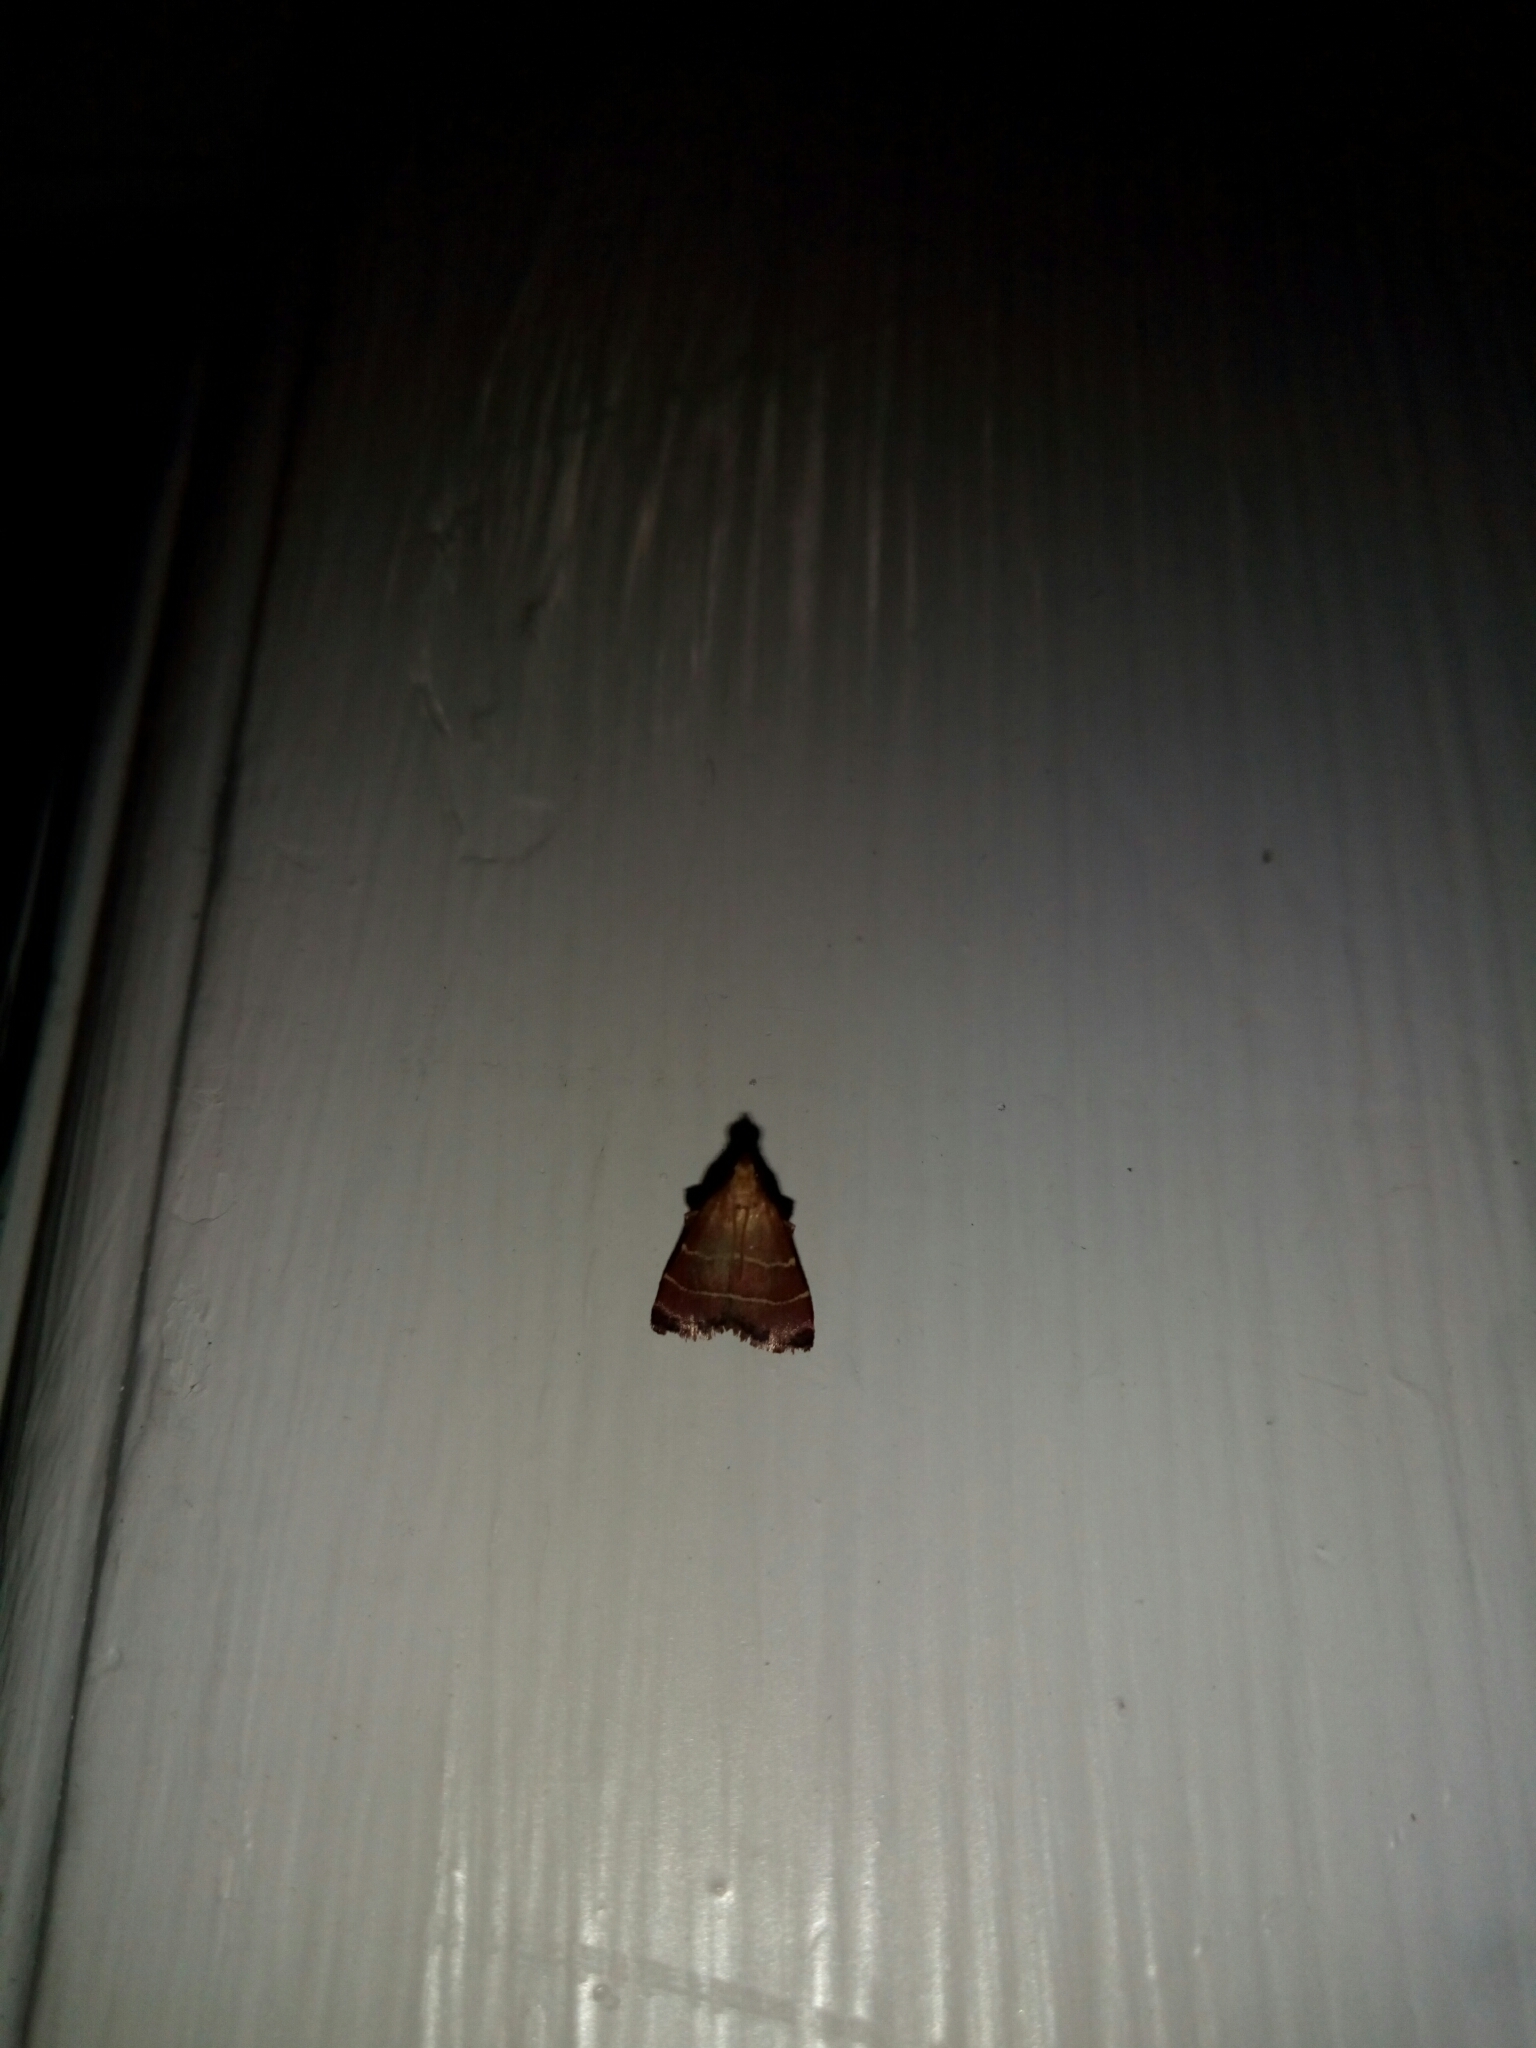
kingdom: Animalia
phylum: Arthropoda
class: Insecta
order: Lepidoptera
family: Pyralidae
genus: Arta
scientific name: Arta statalis
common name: Posturing arta moth
